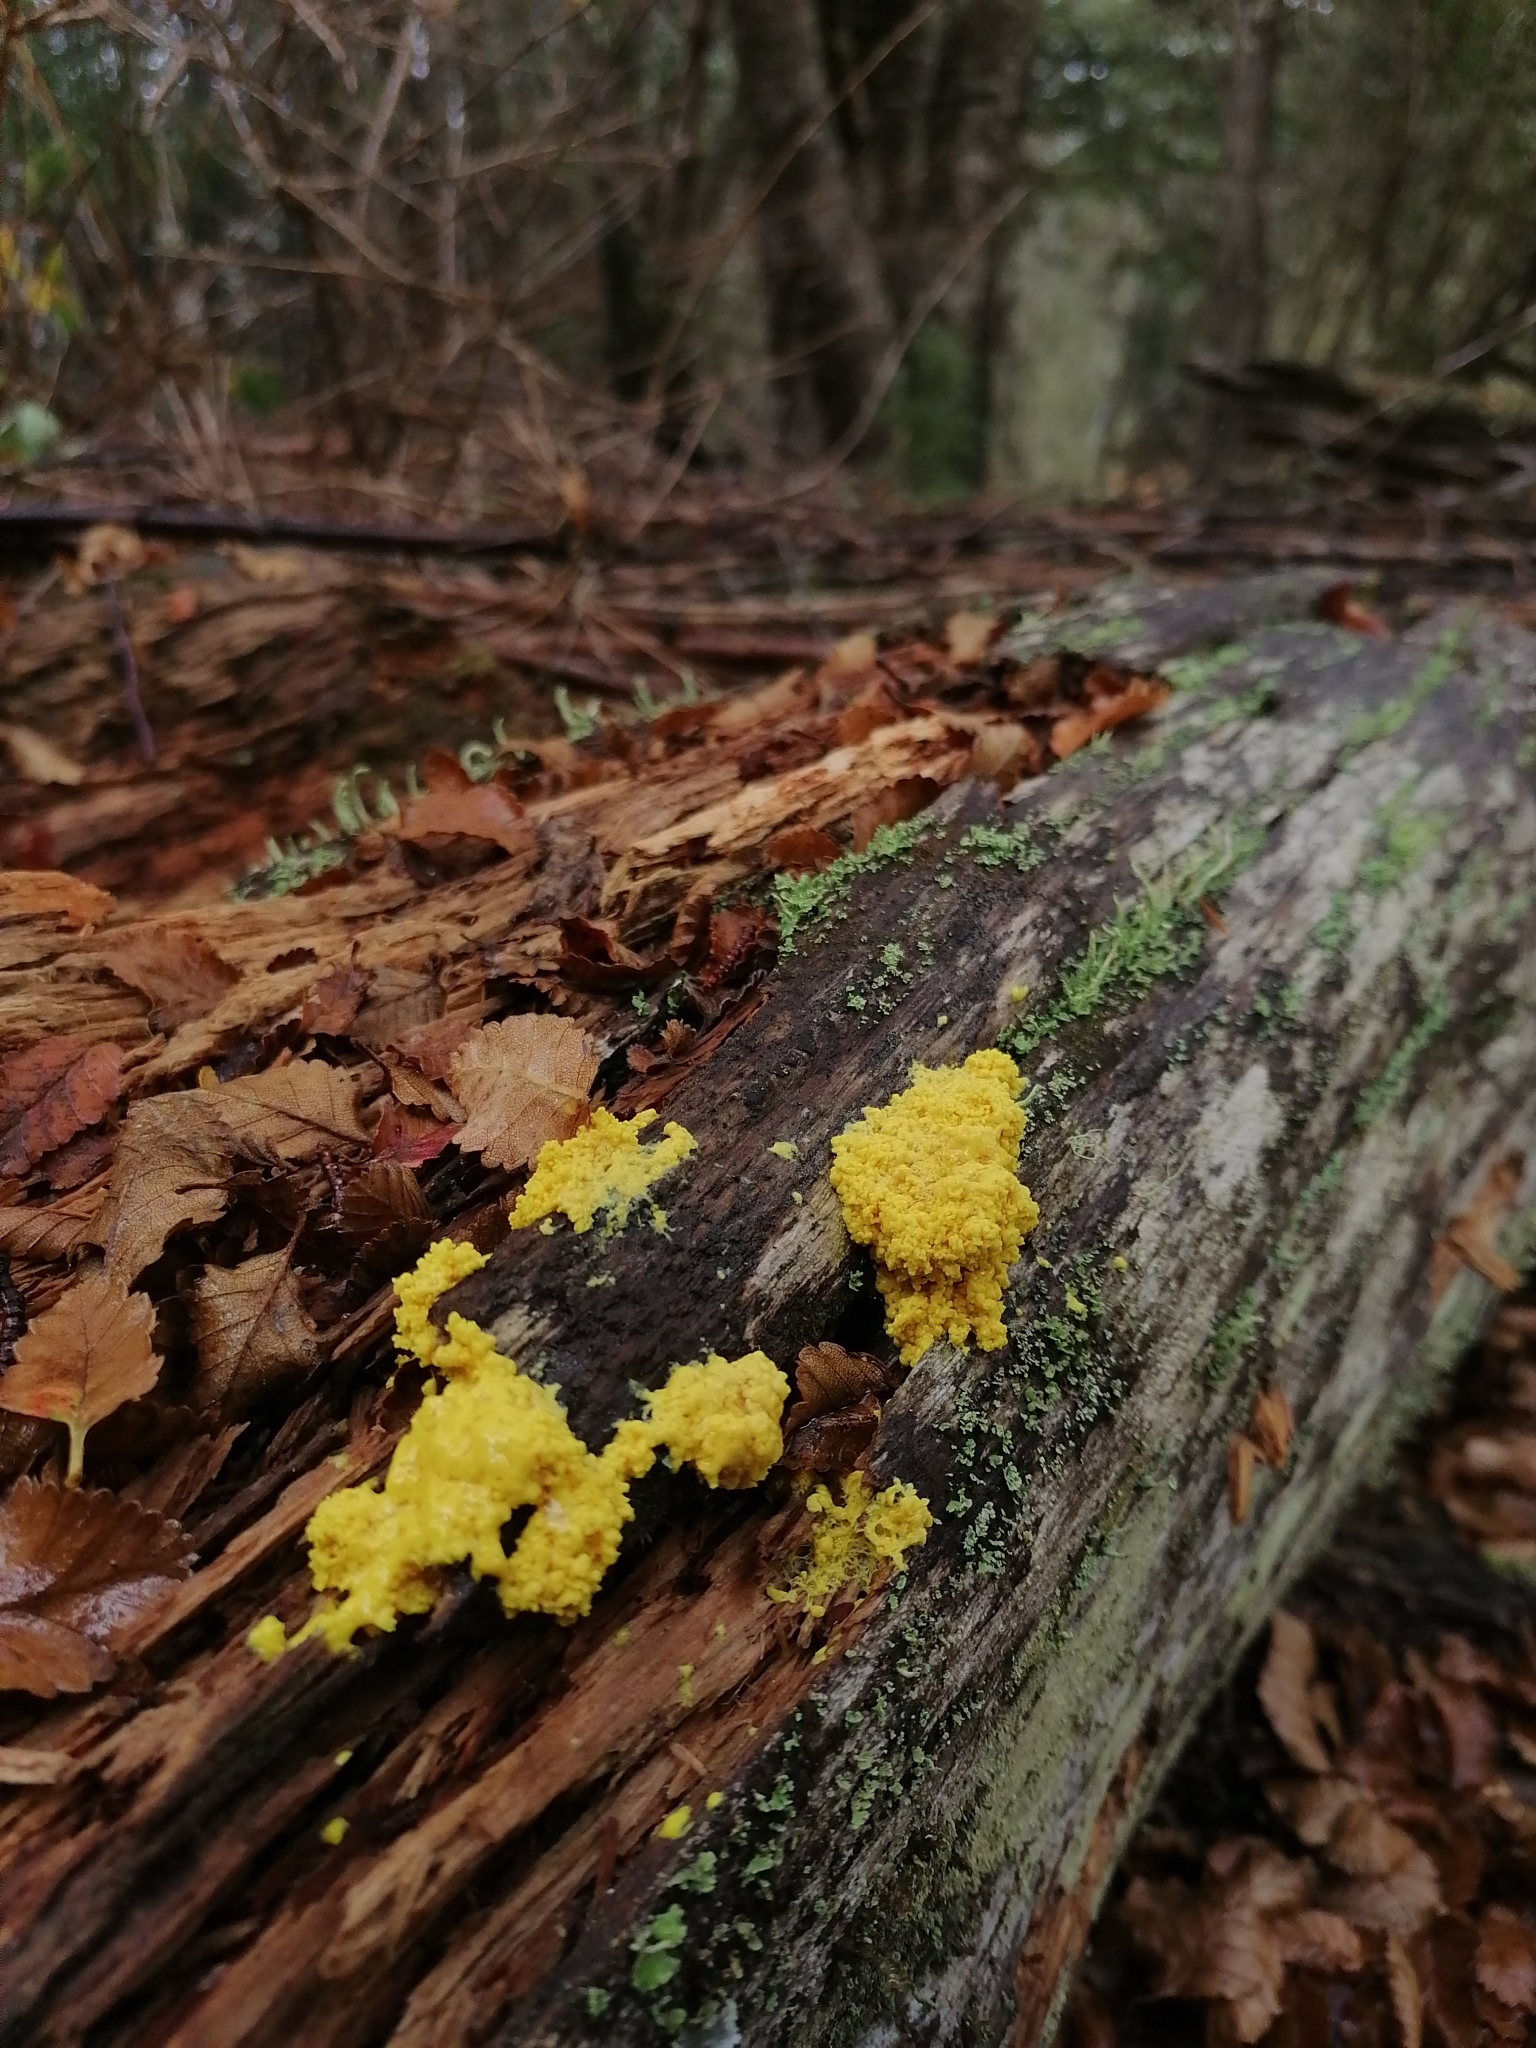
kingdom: Protozoa
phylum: Mycetozoa
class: Myxomycetes
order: Physarales
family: Physaraceae
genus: Fuligo
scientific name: Fuligo septica
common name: Dog vomit slime mold
